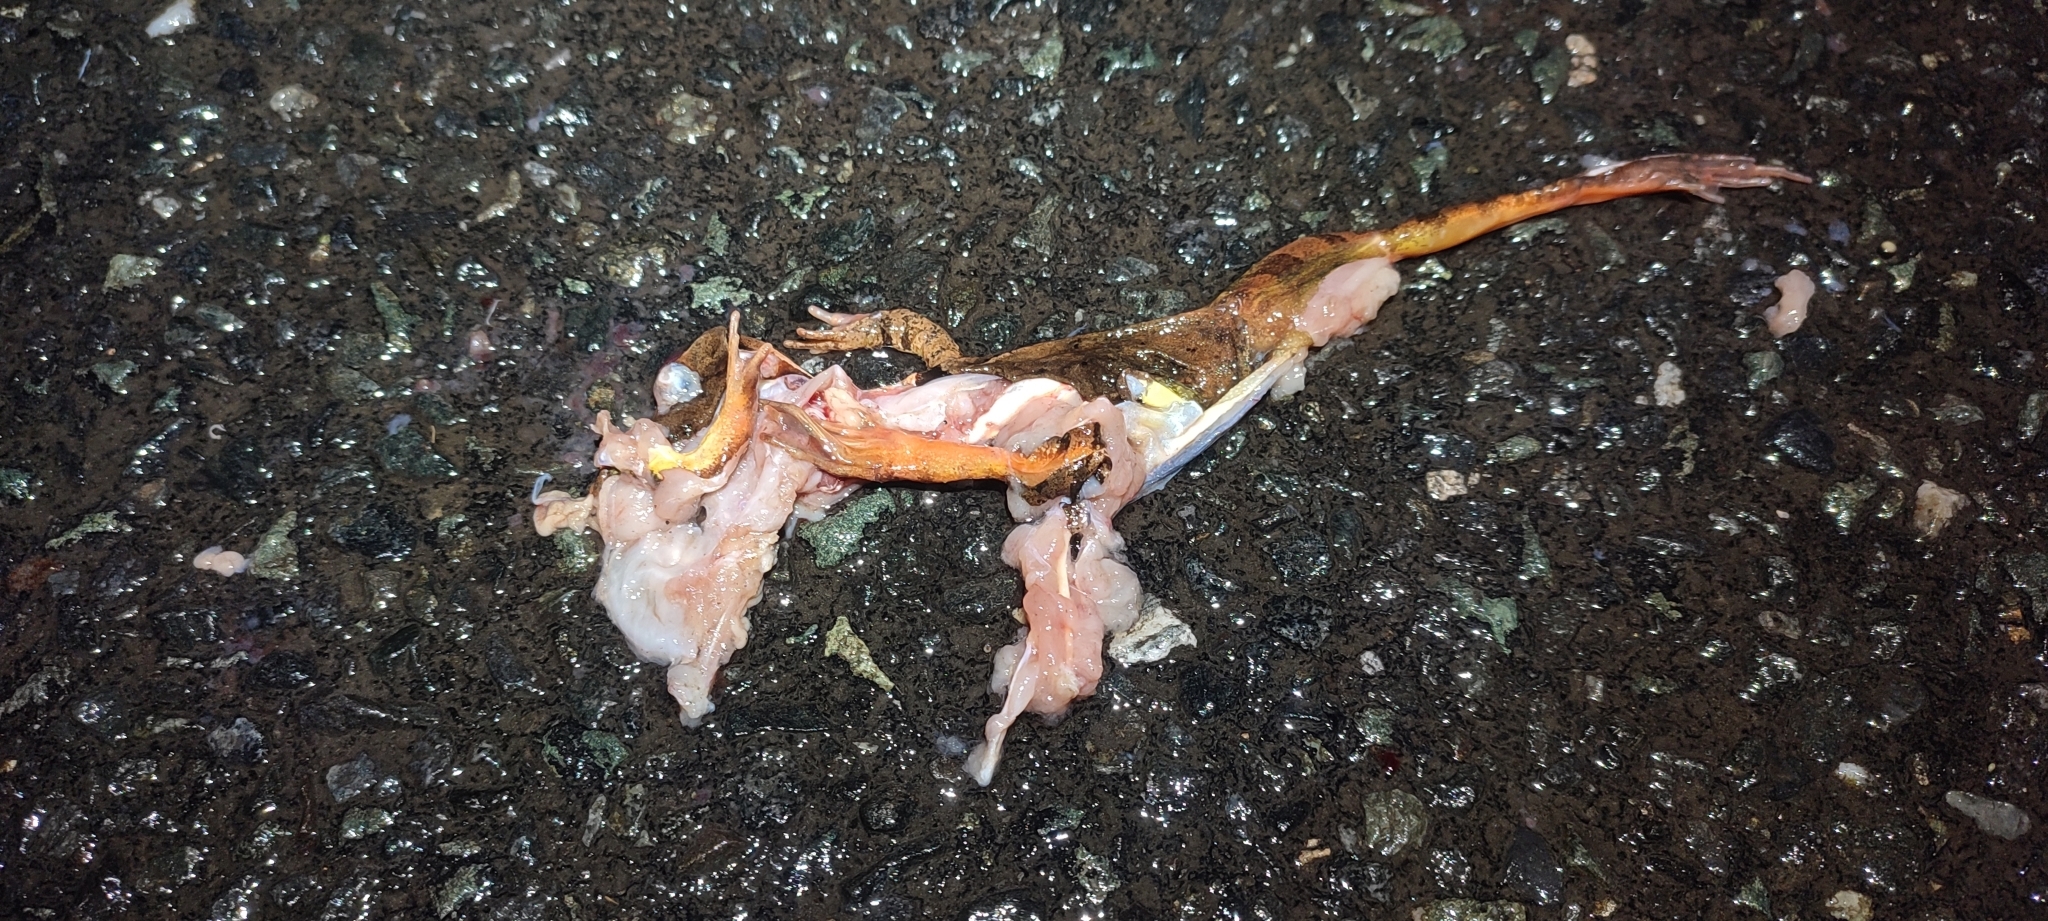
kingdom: Animalia
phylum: Chordata
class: Amphibia
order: Anura
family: Ranidae
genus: Rana
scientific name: Rana dalmatina
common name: Agile frog
